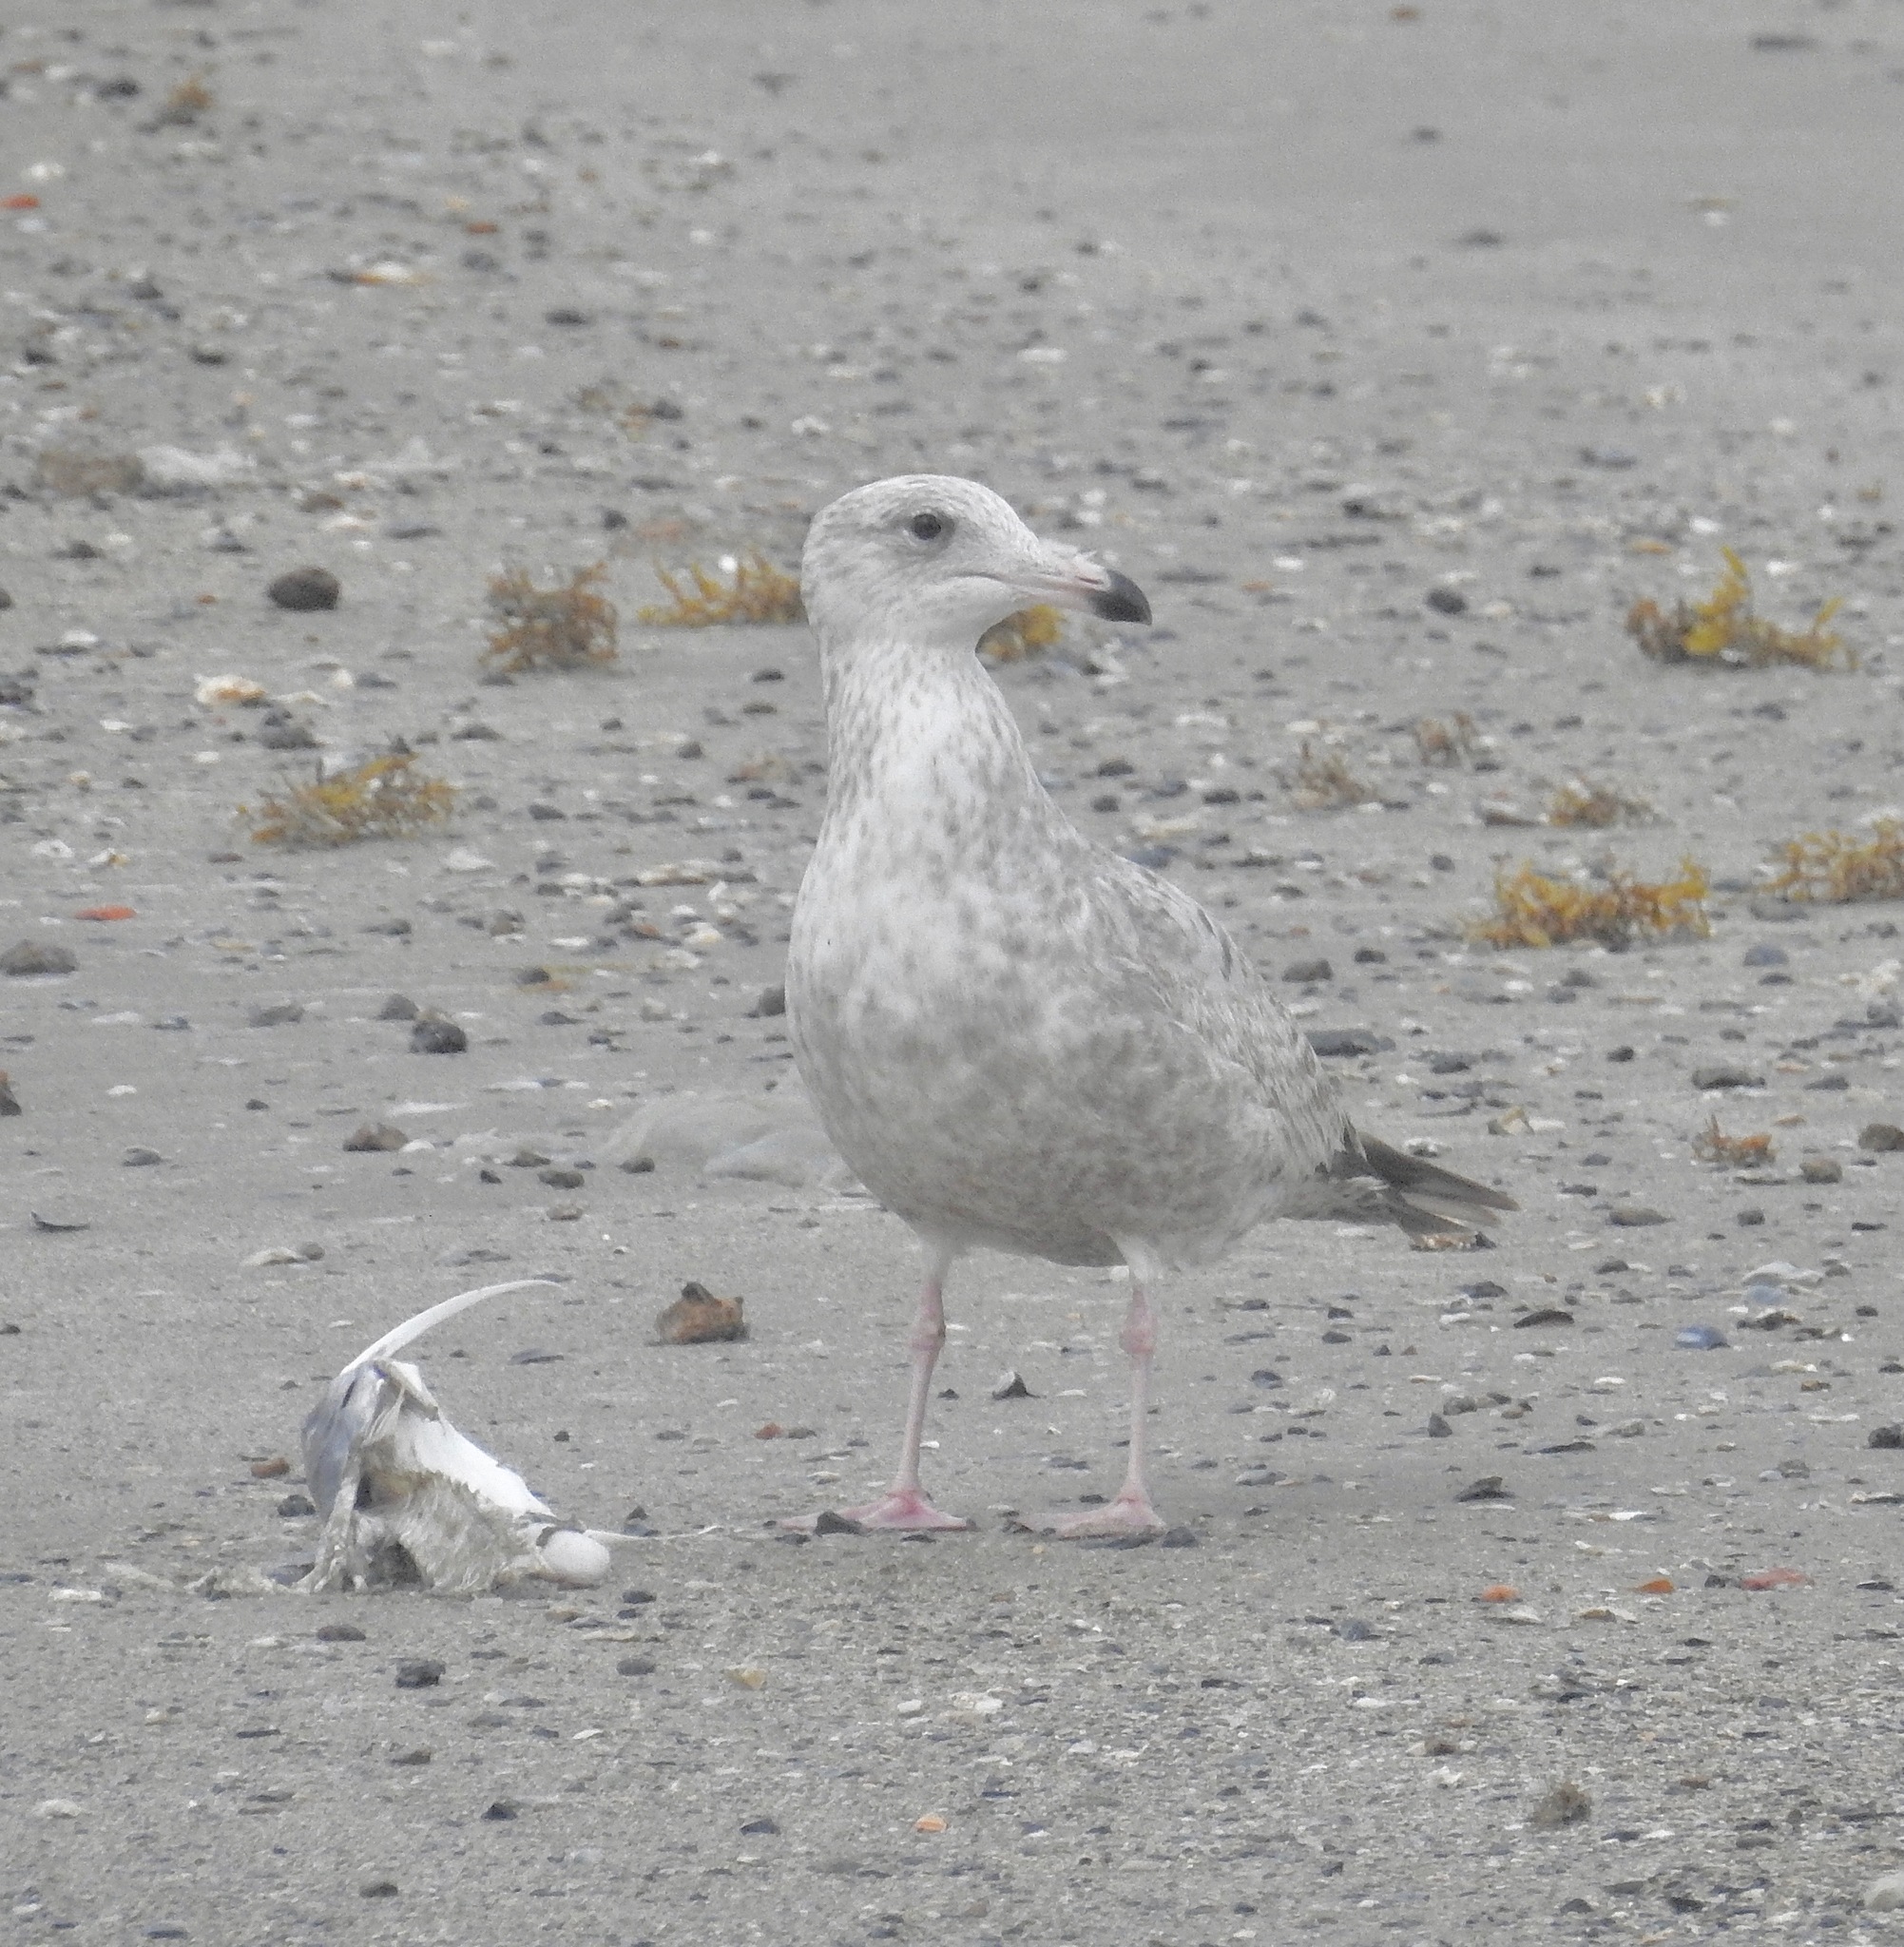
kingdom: Animalia
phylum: Chordata
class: Aves
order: Charadriiformes
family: Laridae
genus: Larus
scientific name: Larus argentatus
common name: Herring gull
